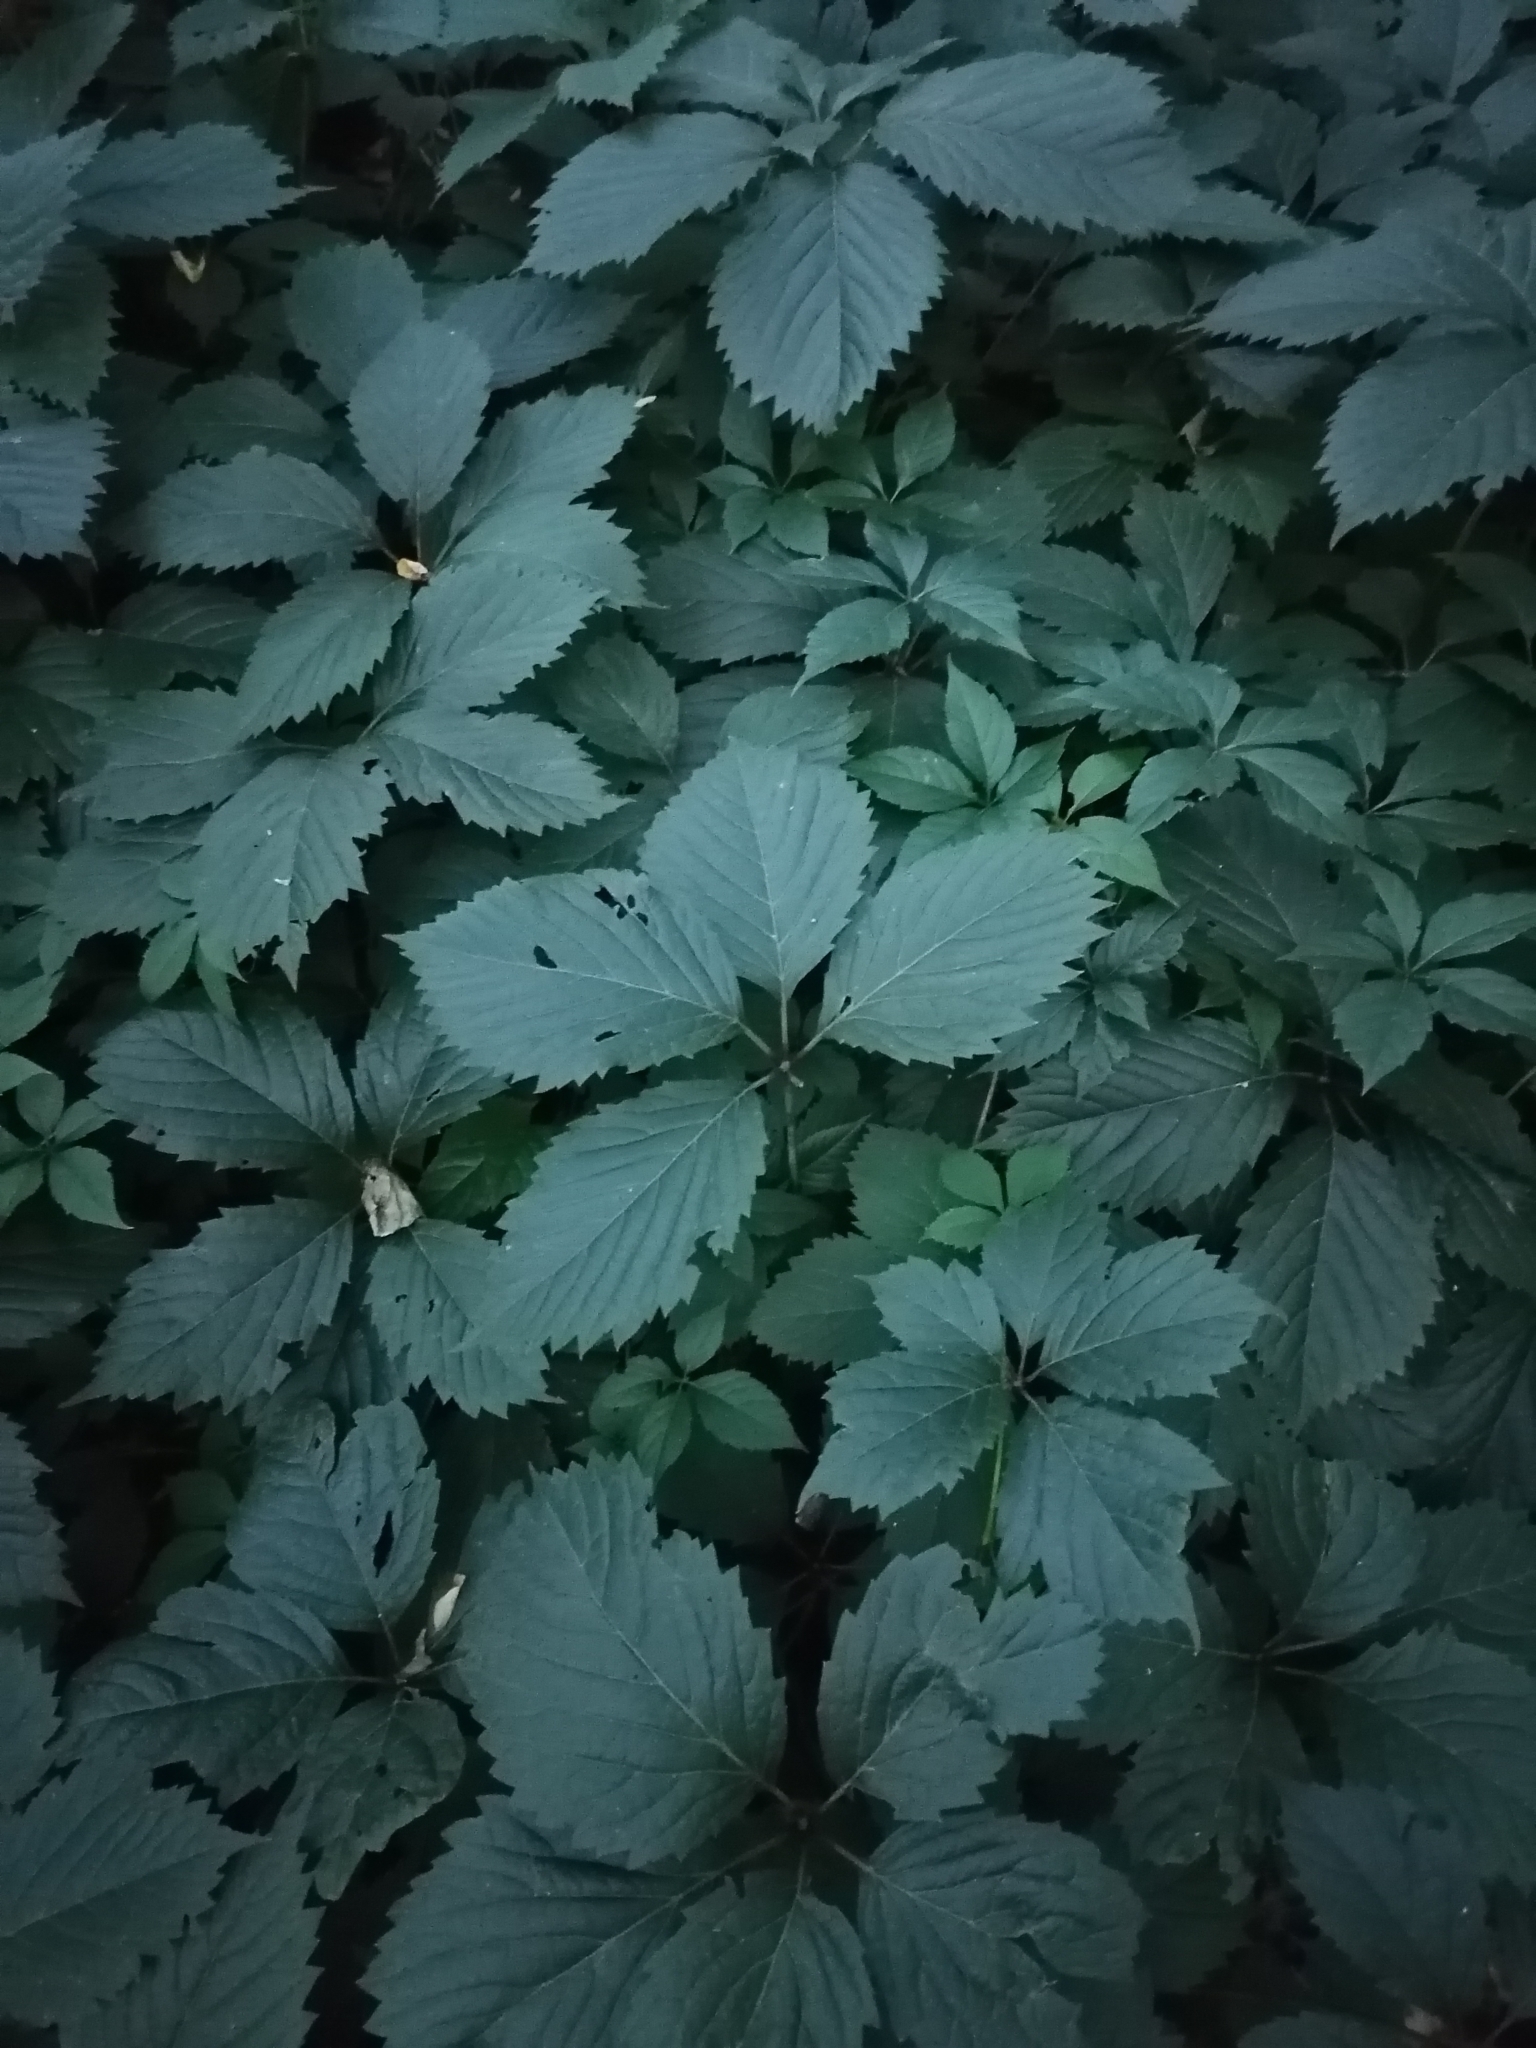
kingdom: Plantae
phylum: Tracheophyta
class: Magnoliopsida
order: Vitales
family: Vitaceae
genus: Parthenocissus
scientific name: Parthenocissus inserta
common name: False virginia-creeper
